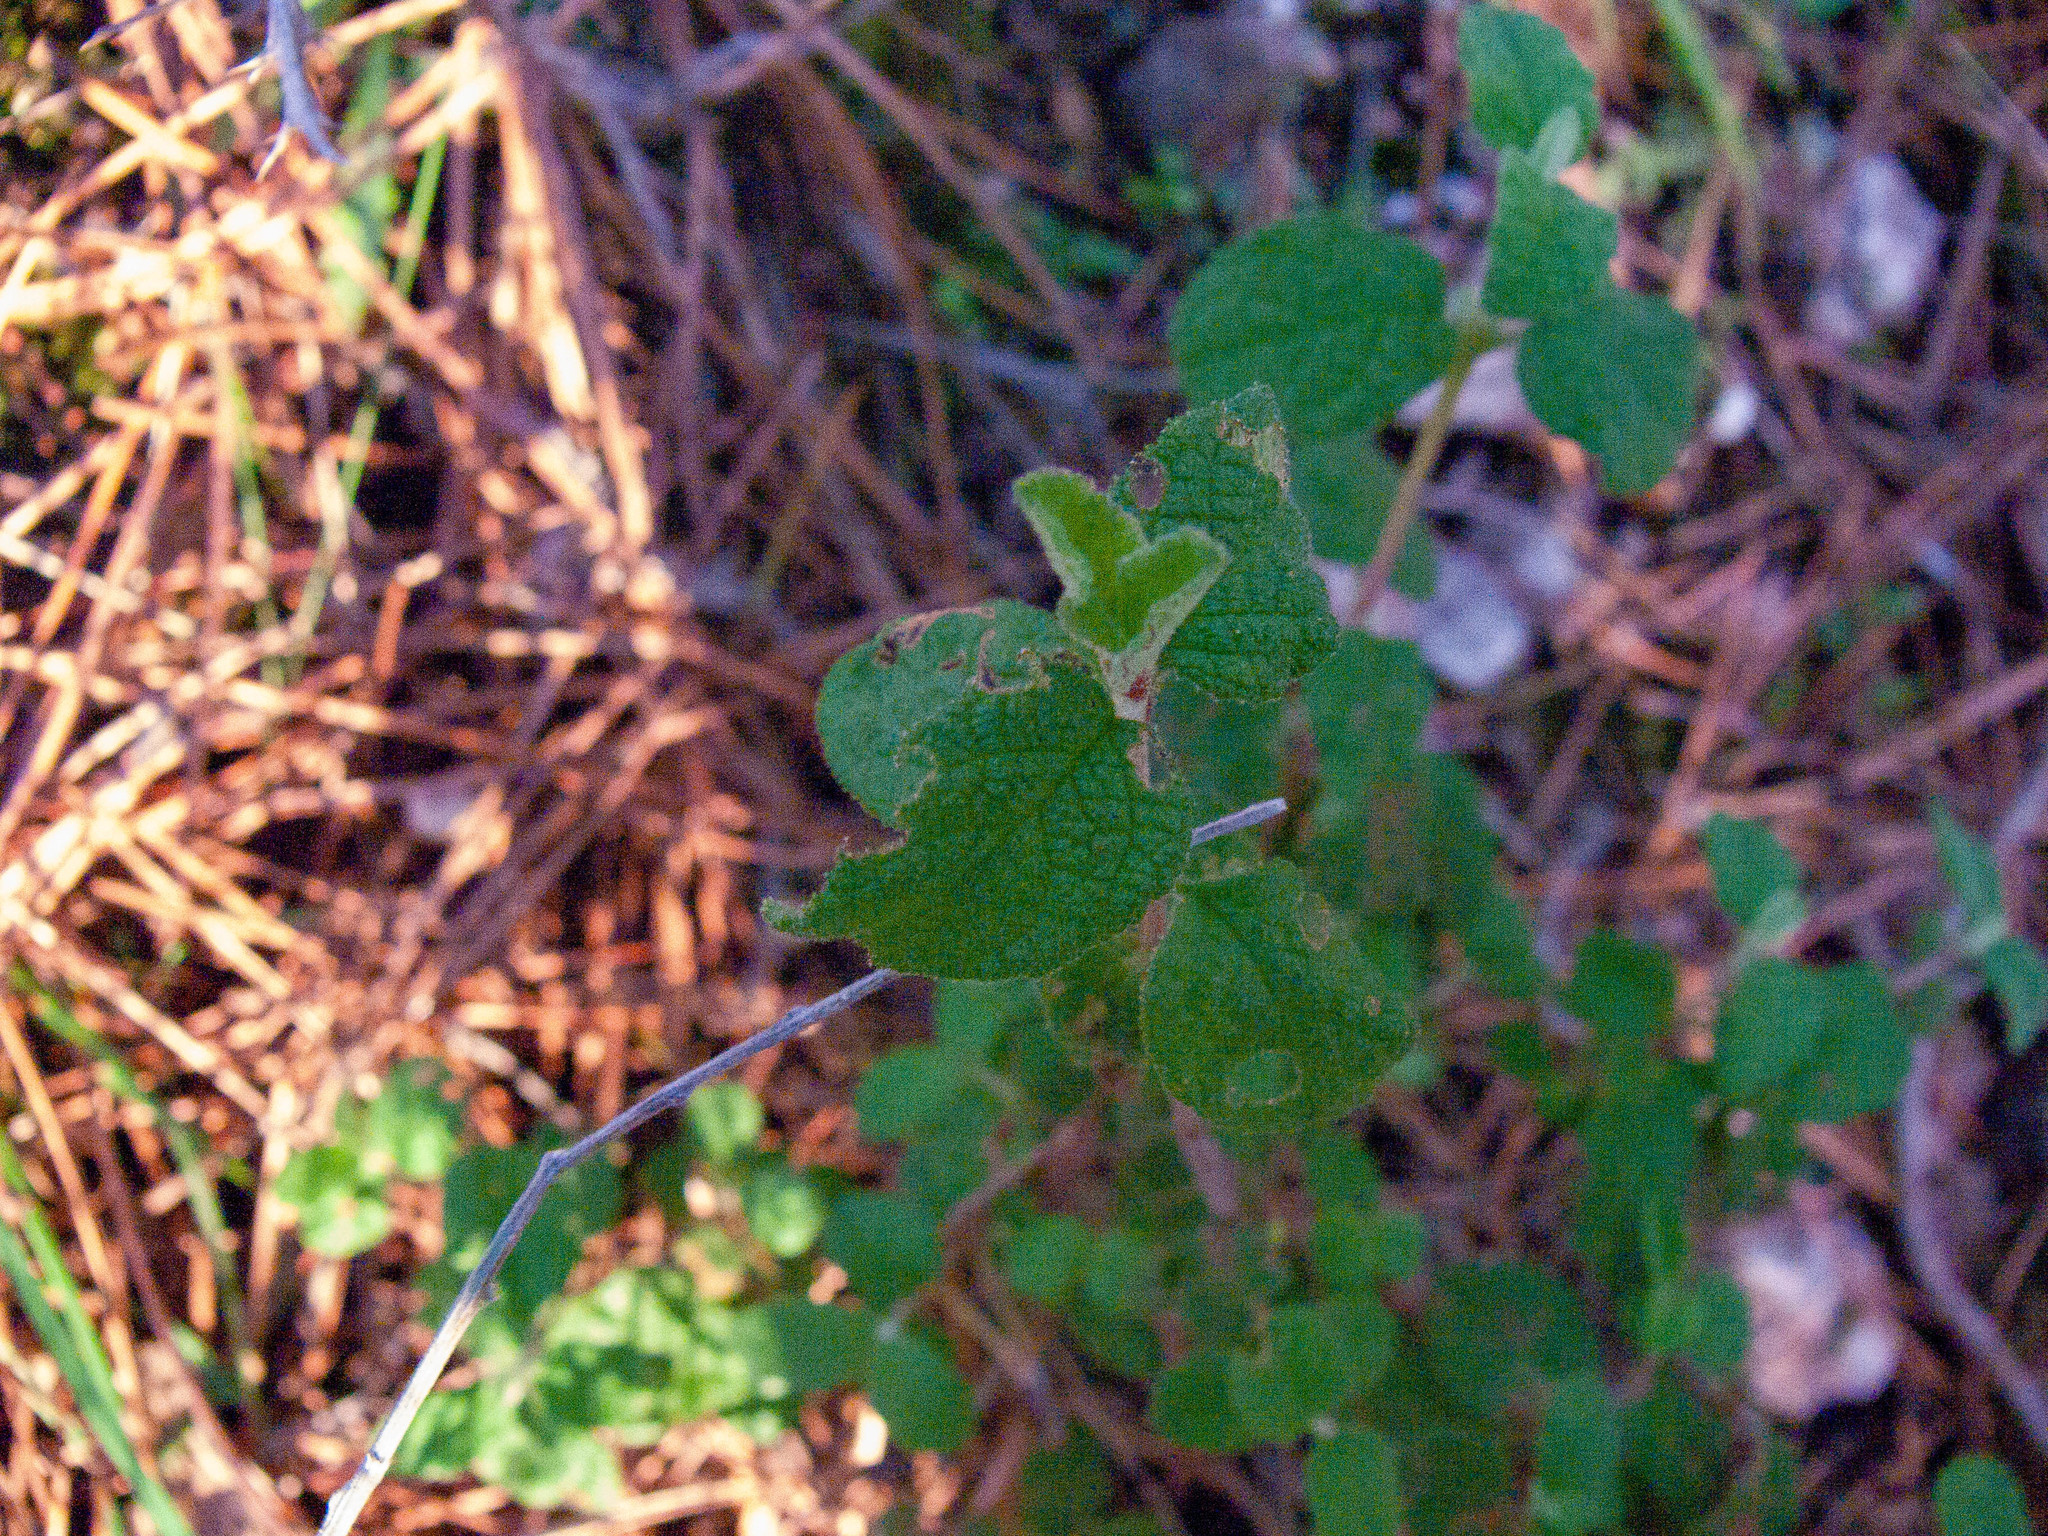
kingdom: Plantae
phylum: Tracheophyta
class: Magnoliopsida
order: Malvales
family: Cistaceae
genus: Cistus
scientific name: Cistus salviifolius
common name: Salvia cistus
